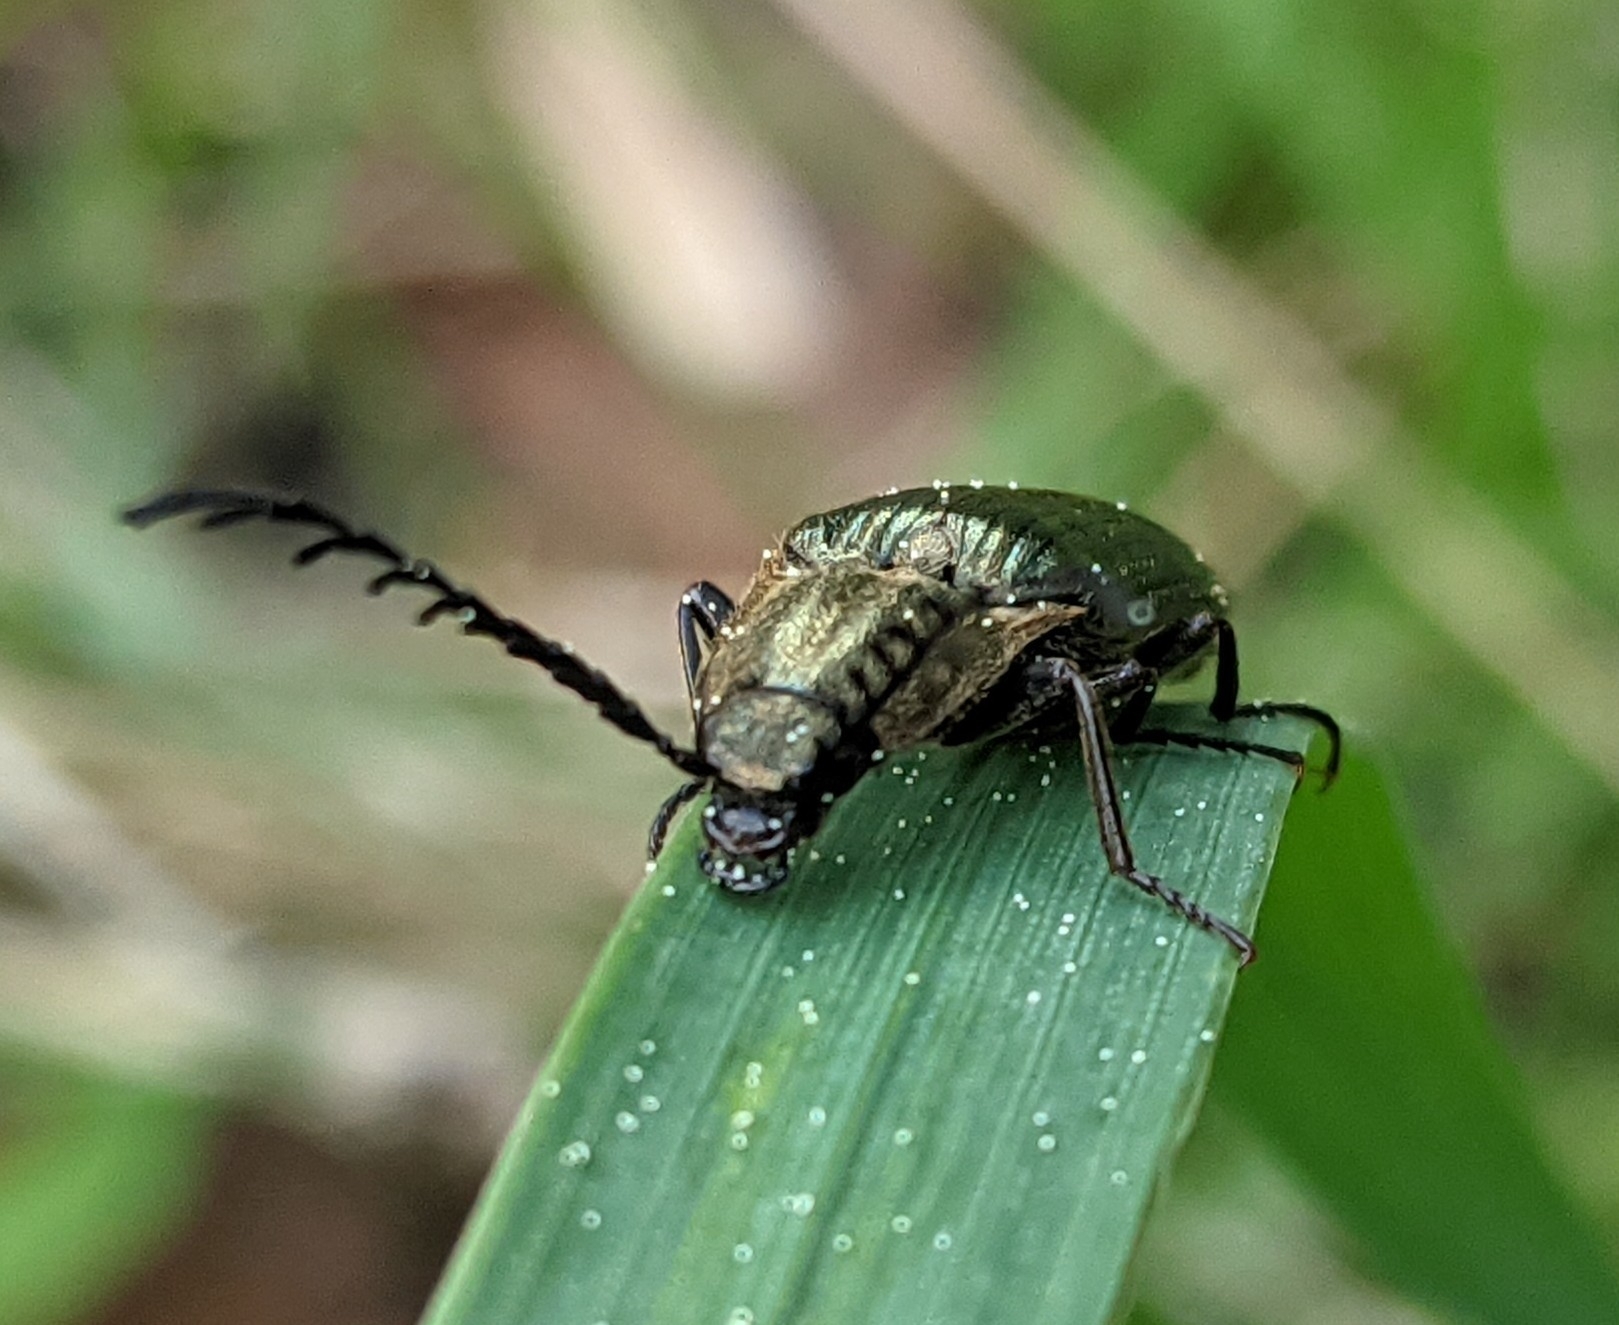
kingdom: Animalia
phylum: Arthropoda
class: Insecta
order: Coleoptera
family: Elateridae
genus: Ctenicera
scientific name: Ctenicera pectinicornis
